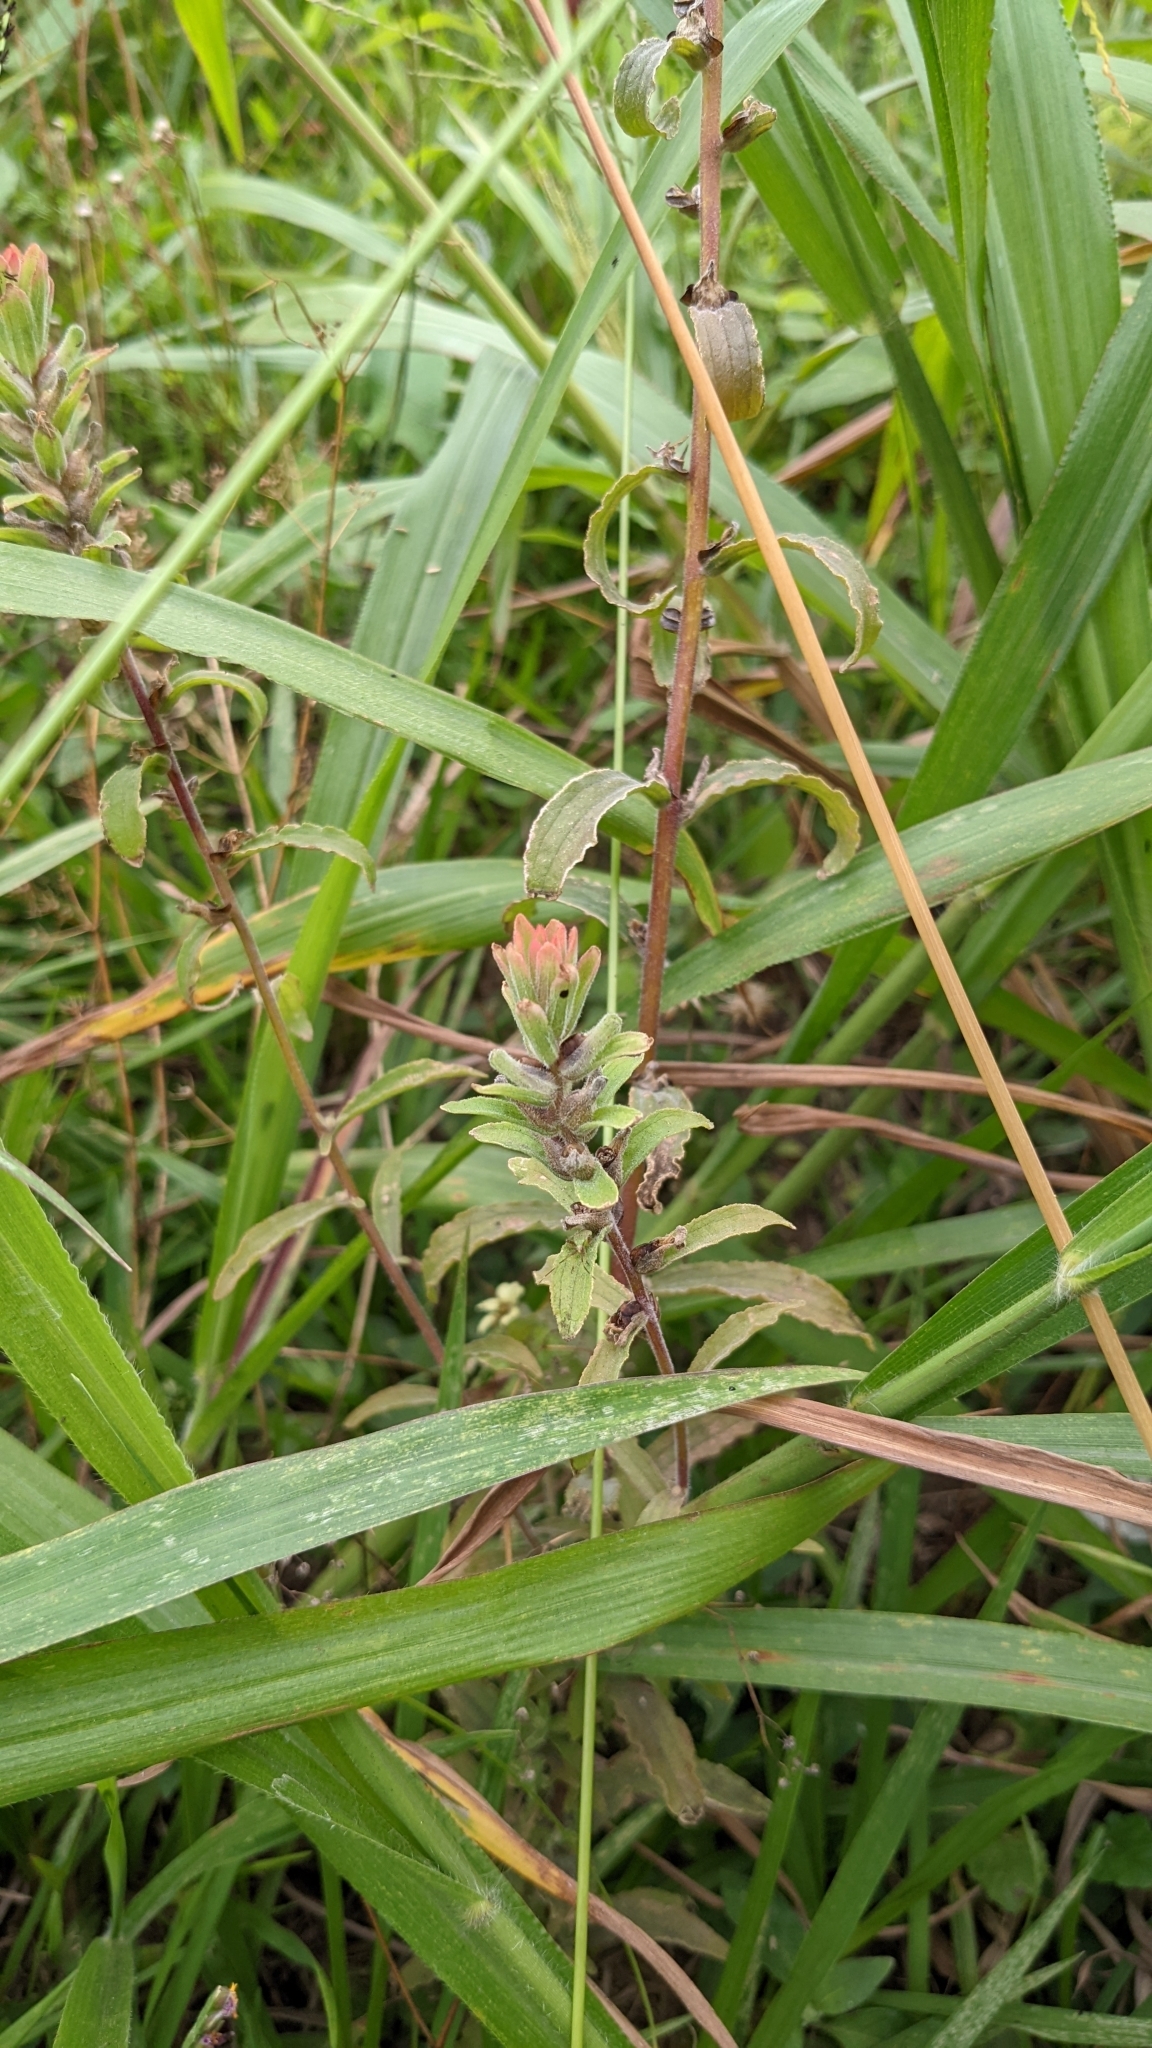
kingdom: Plantae
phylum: Tracheophyta
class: Magnoliopsida
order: Lamiales
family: Orobanchaceae
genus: Castilleja
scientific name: Castilleja arvensis
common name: Indian paintbrush
